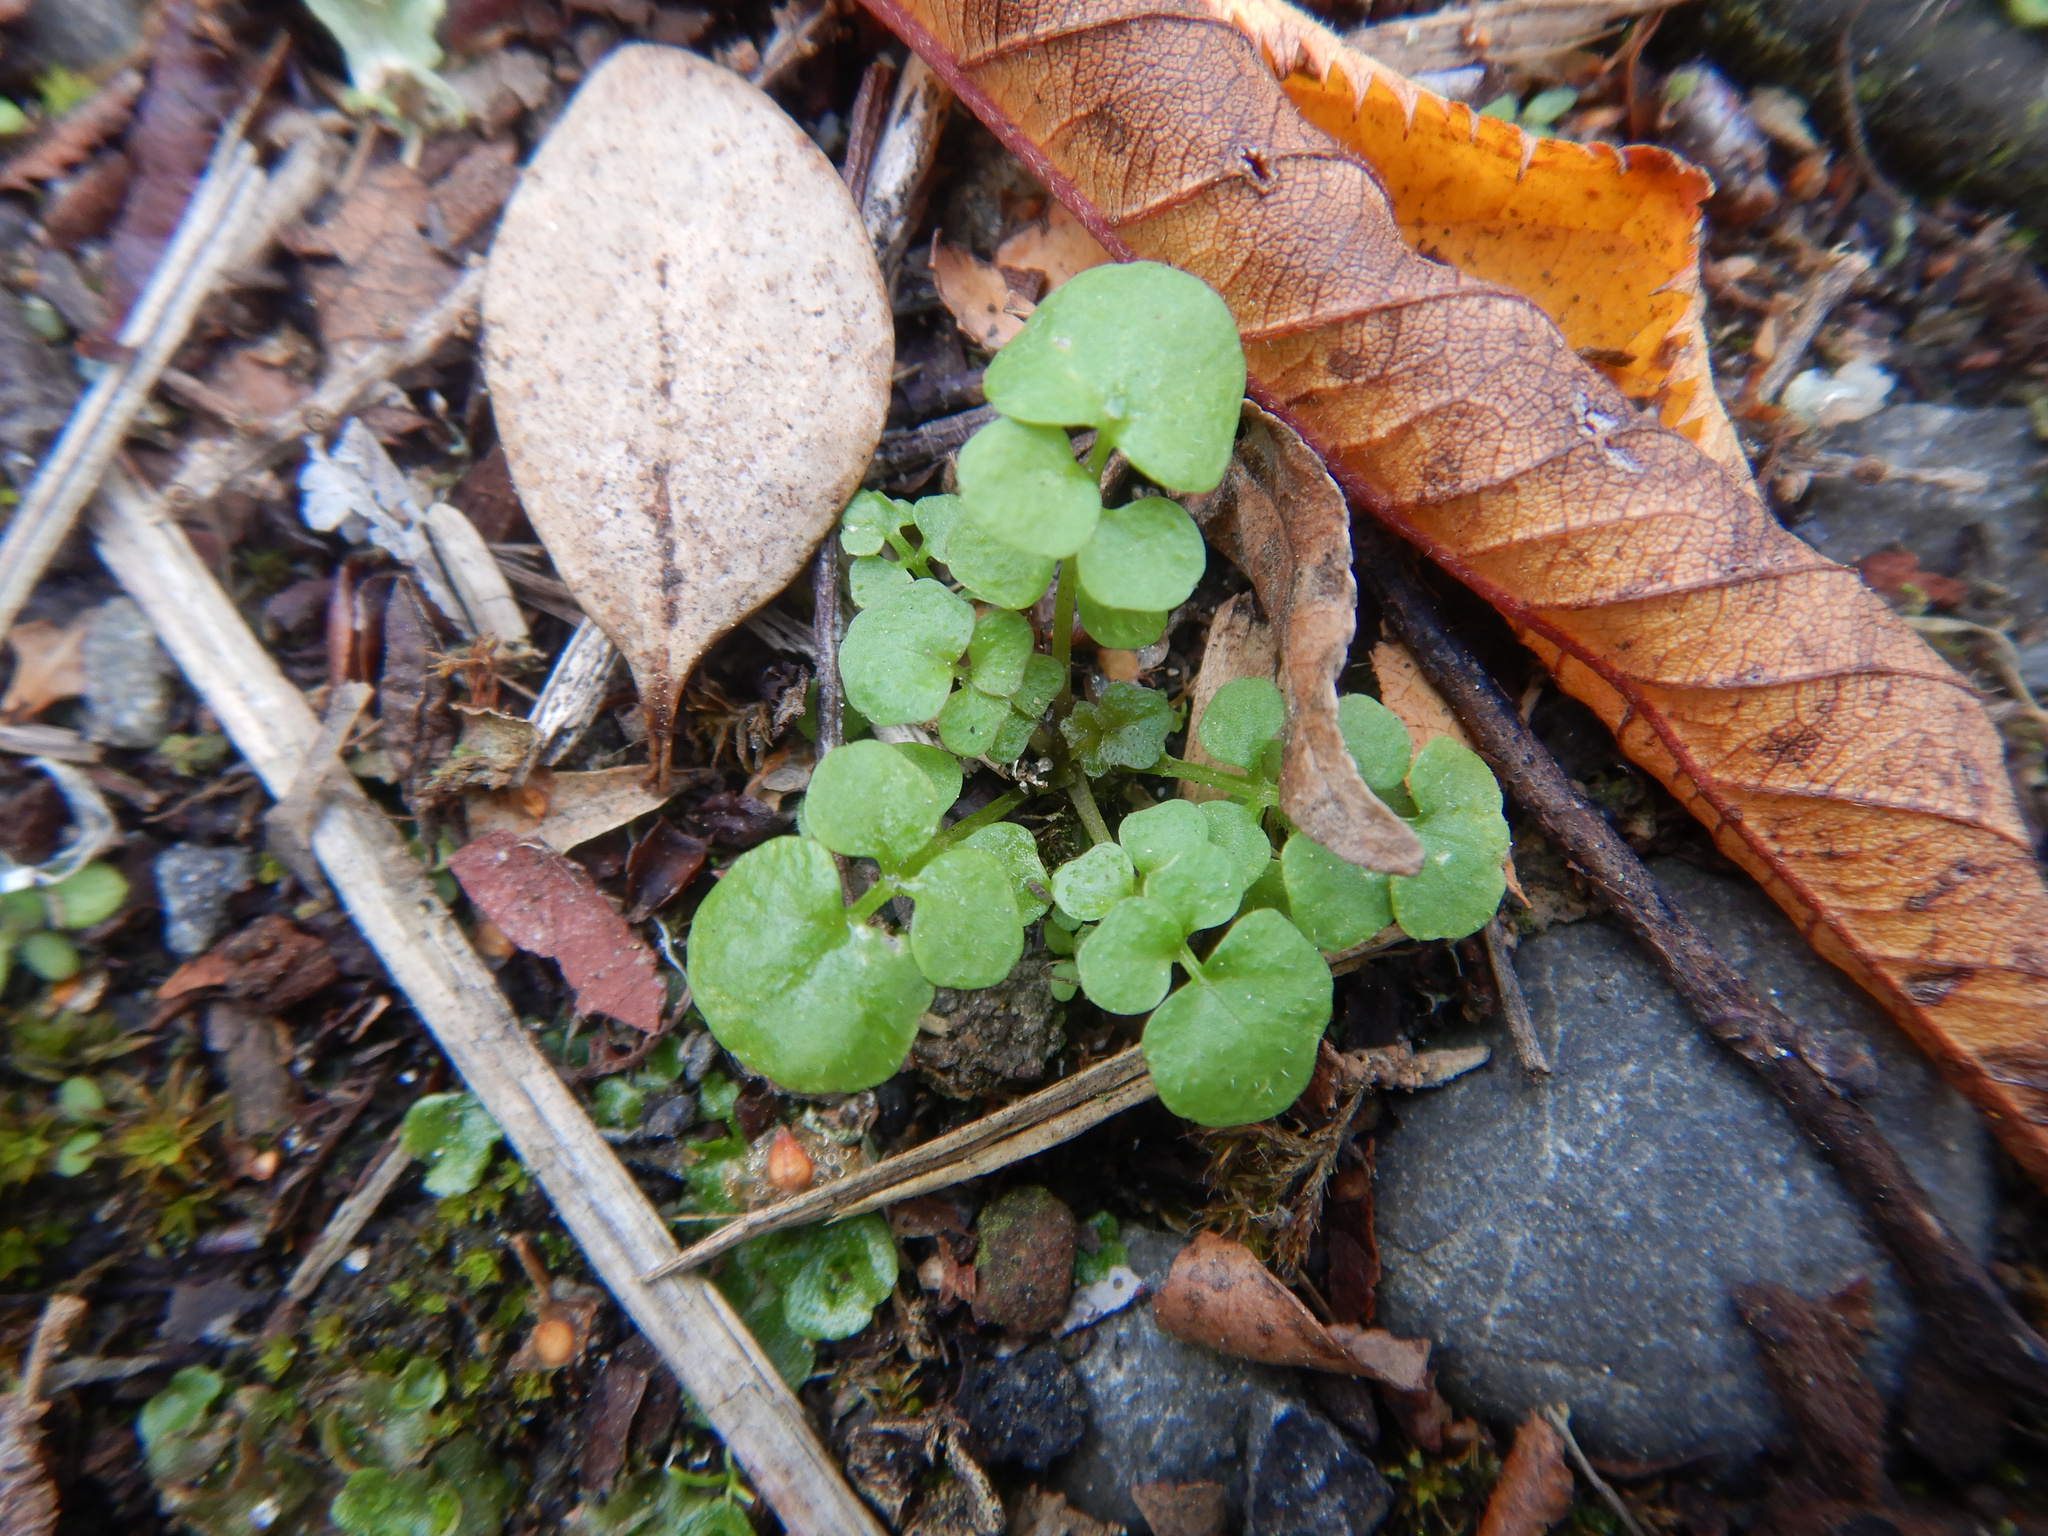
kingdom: Plantae
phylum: Tracheophyta
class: Magnoliopsida
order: Brassicales
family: Brassicaceae
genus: Cardamine
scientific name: Cardamine hirsuta
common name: Hairy bittercress
